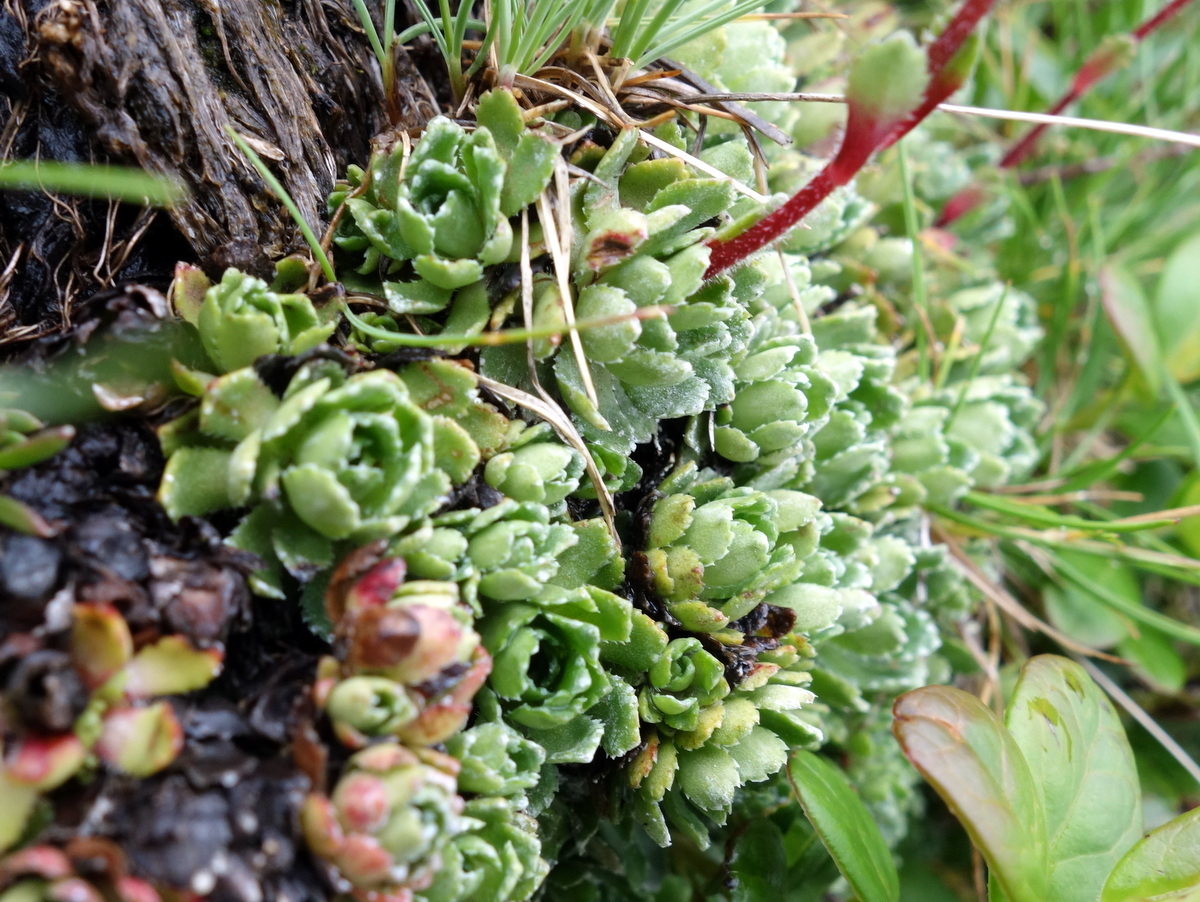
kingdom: Plantae
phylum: Tracheophyta
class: Magnoliopsida
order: Saxifragales
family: Saxifragaceae
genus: Saxifraga
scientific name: Saxifraga paniculata
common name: Livelong saxifrage
